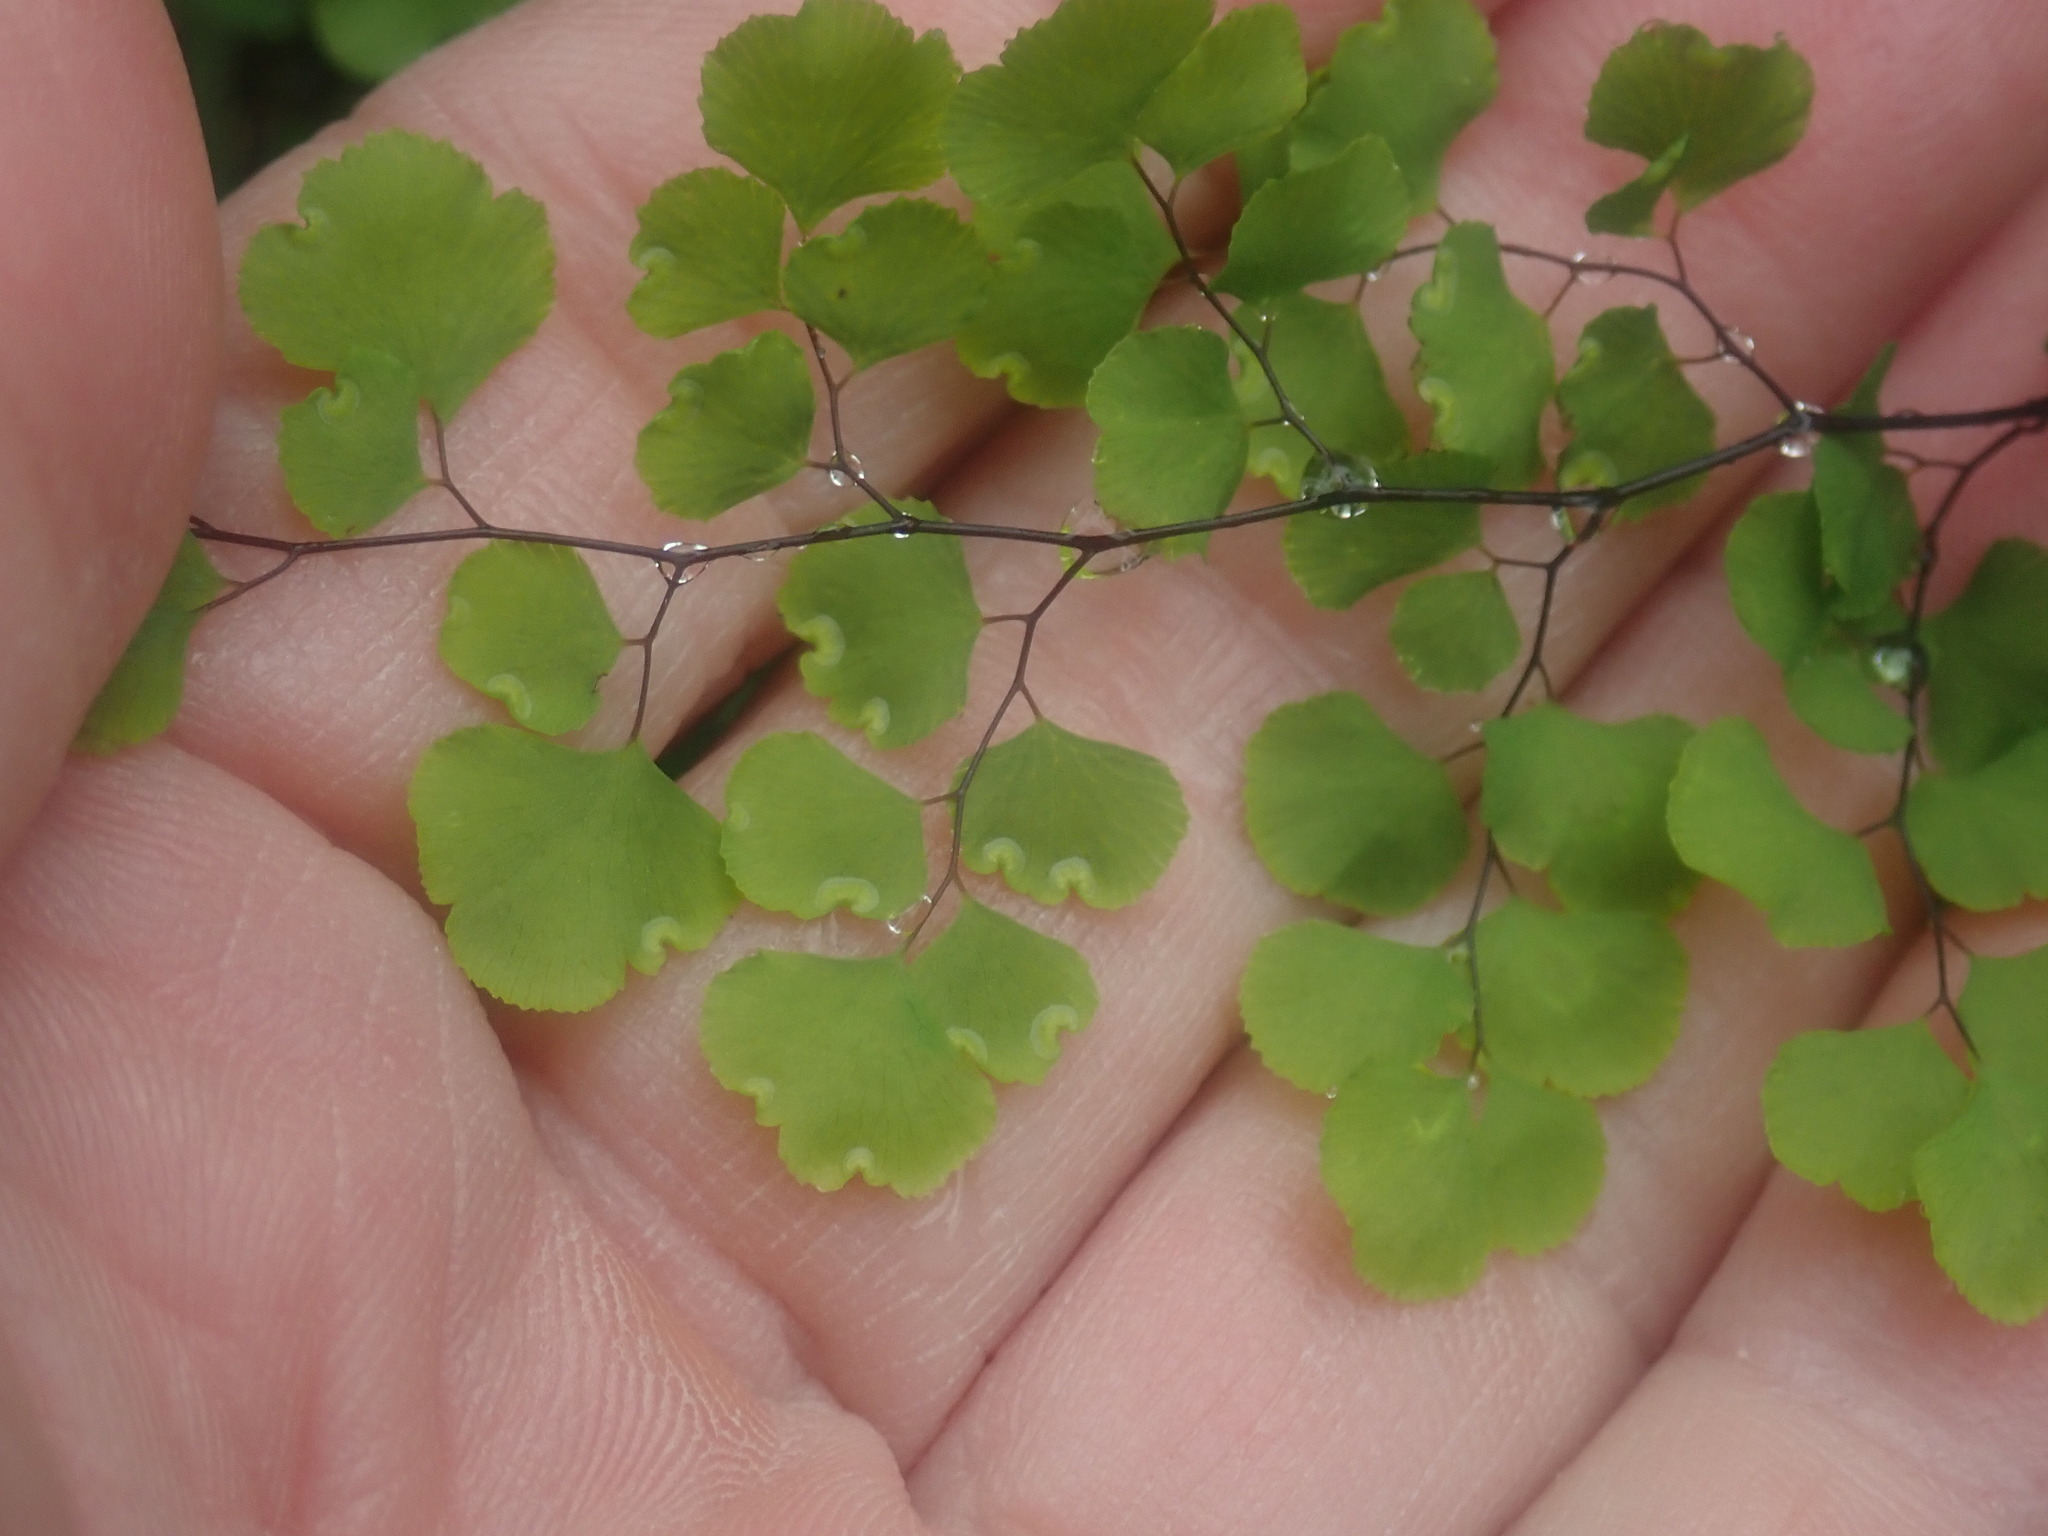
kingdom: Plantae
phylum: Tracheophyta
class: Polypodiopsida
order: Polypodiales
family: Pteridaceae
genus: Adiantum
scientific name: Adiantum aethiopicum
